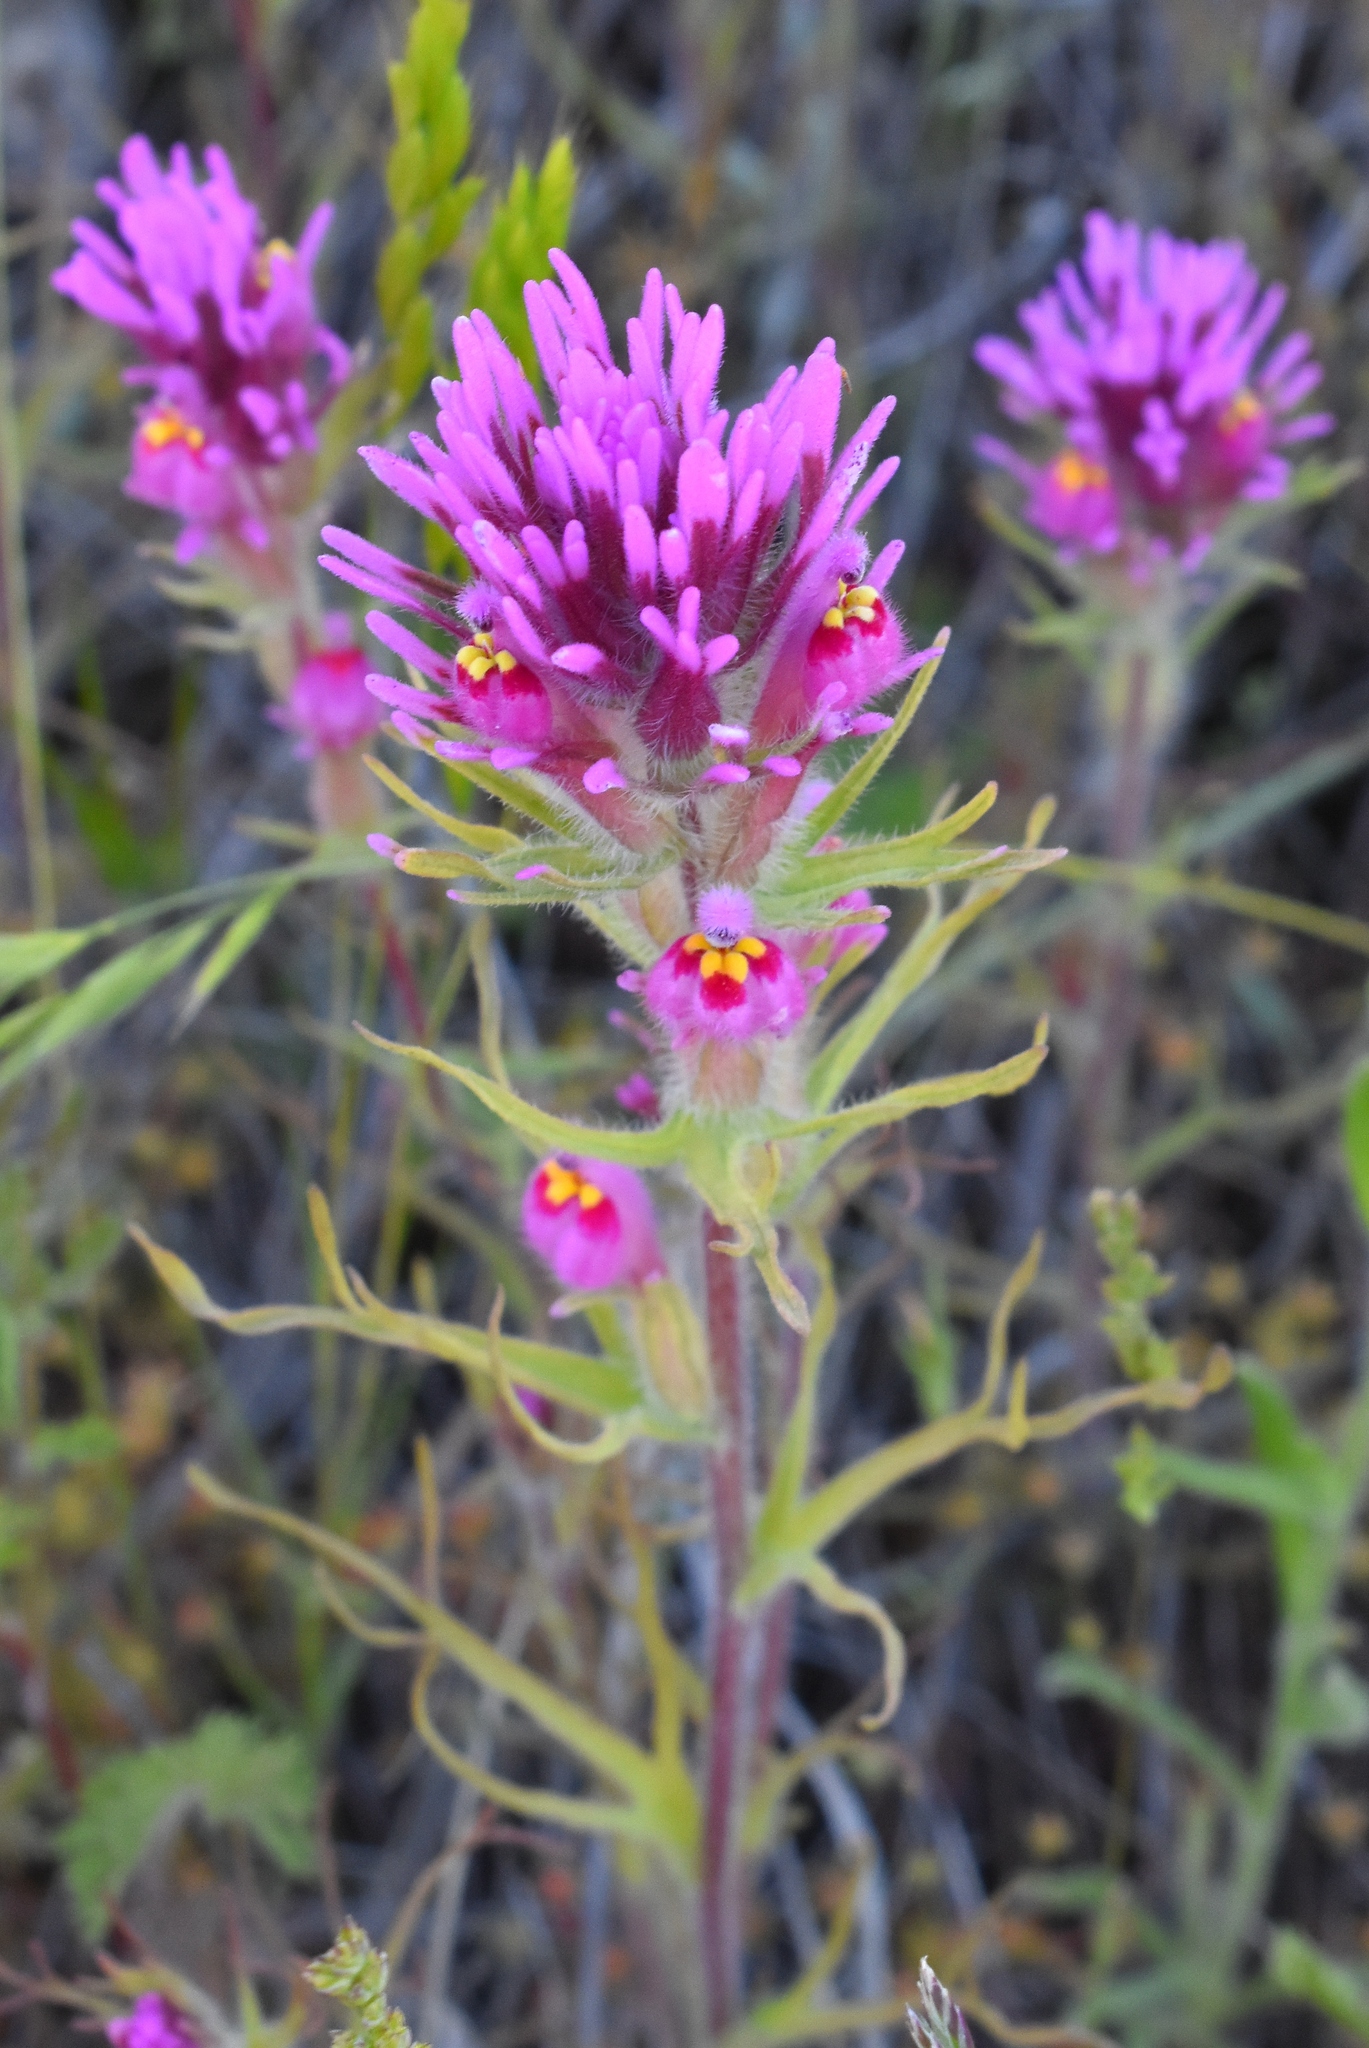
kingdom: Plantae
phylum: Tracheophyta
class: Magnoliopsida
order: Lamiales
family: Orobanchaceae
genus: Castilleja
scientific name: Castilleja exserta
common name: Purple owl-clover
